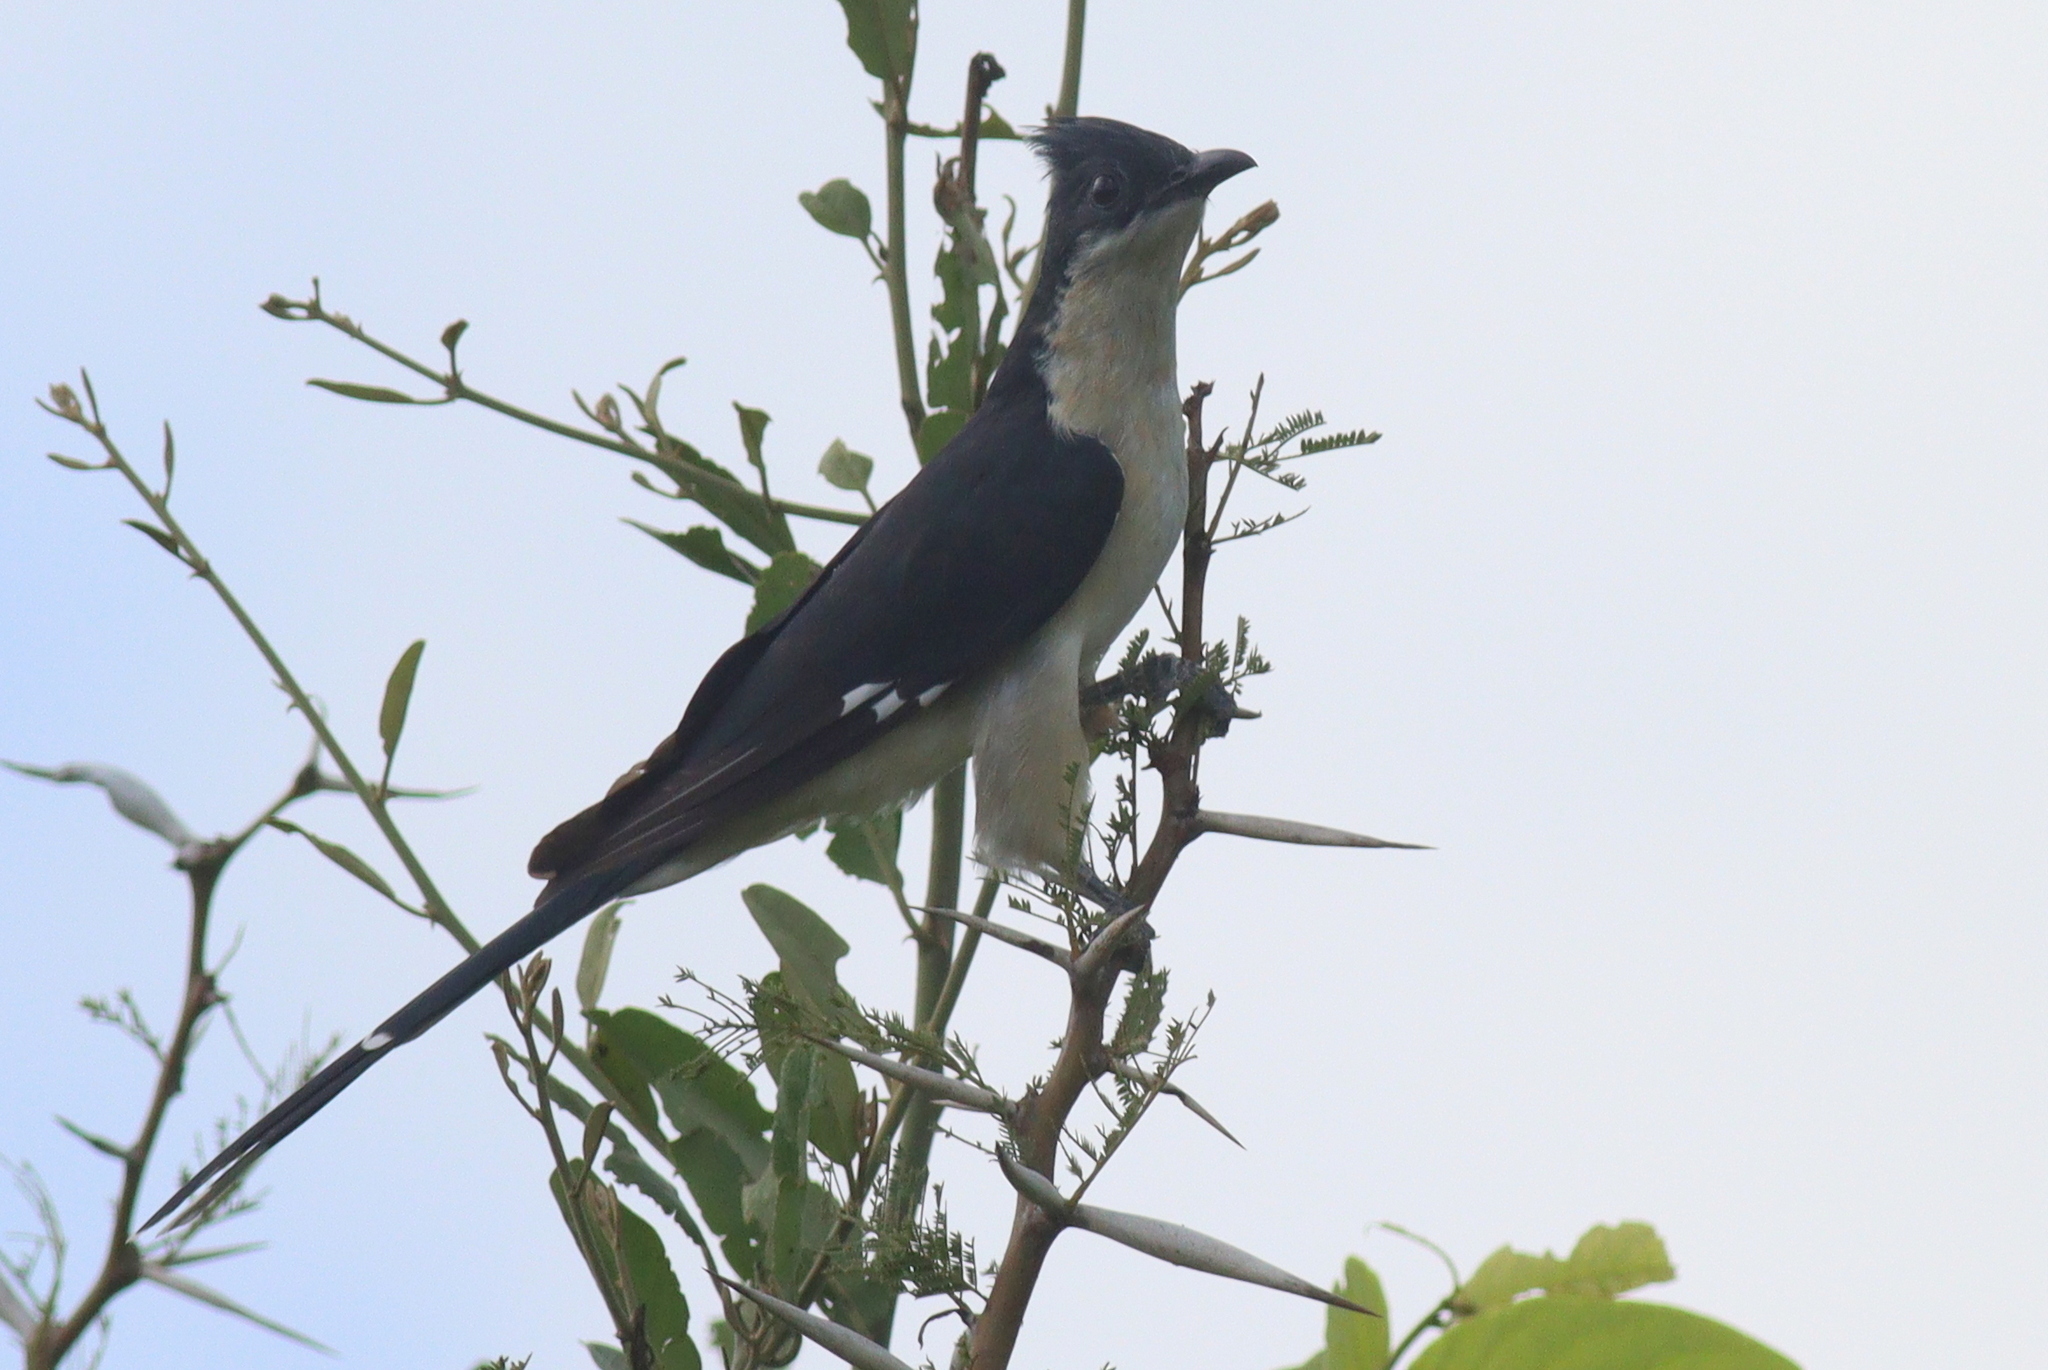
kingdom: Animalia
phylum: Chordata
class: Aves
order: Cuculiformes
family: Cuculidae
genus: Clamator
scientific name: Clamator jacobinus
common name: Jacobin cuckoo
